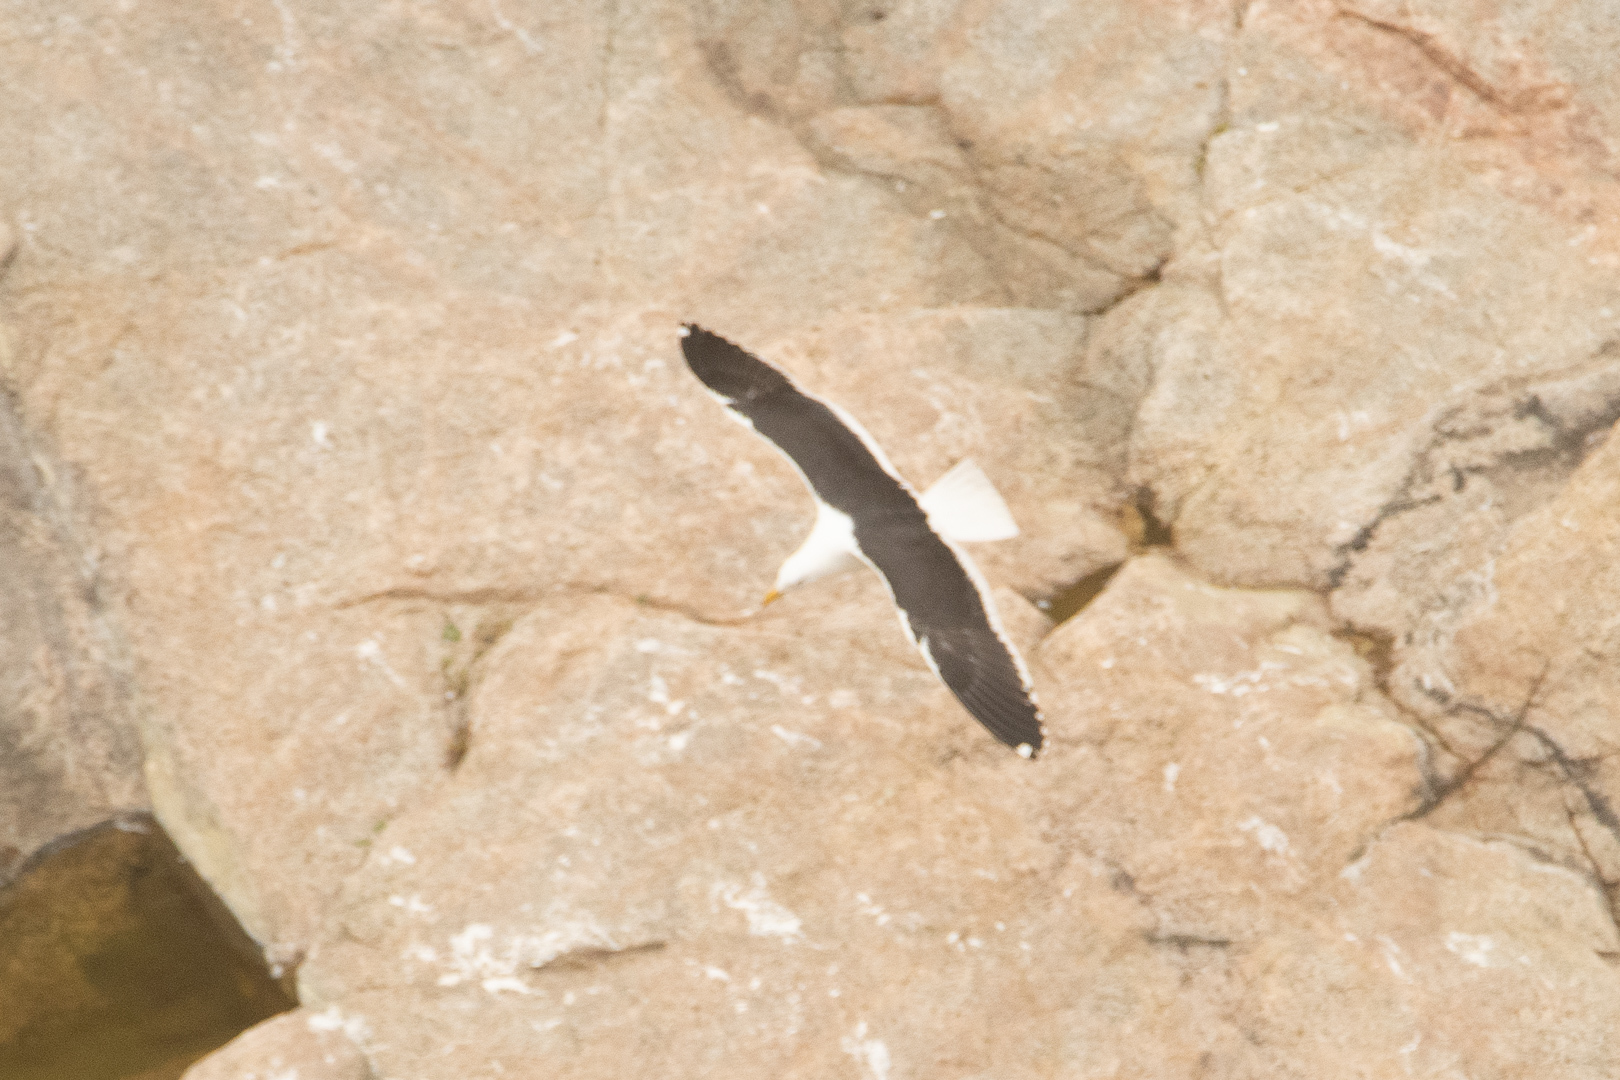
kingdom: Animalia
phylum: Chordata
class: Aves
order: Charadriiformes
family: Laridae
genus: Larus
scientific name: Larus dominicanus
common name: Kelp gull
